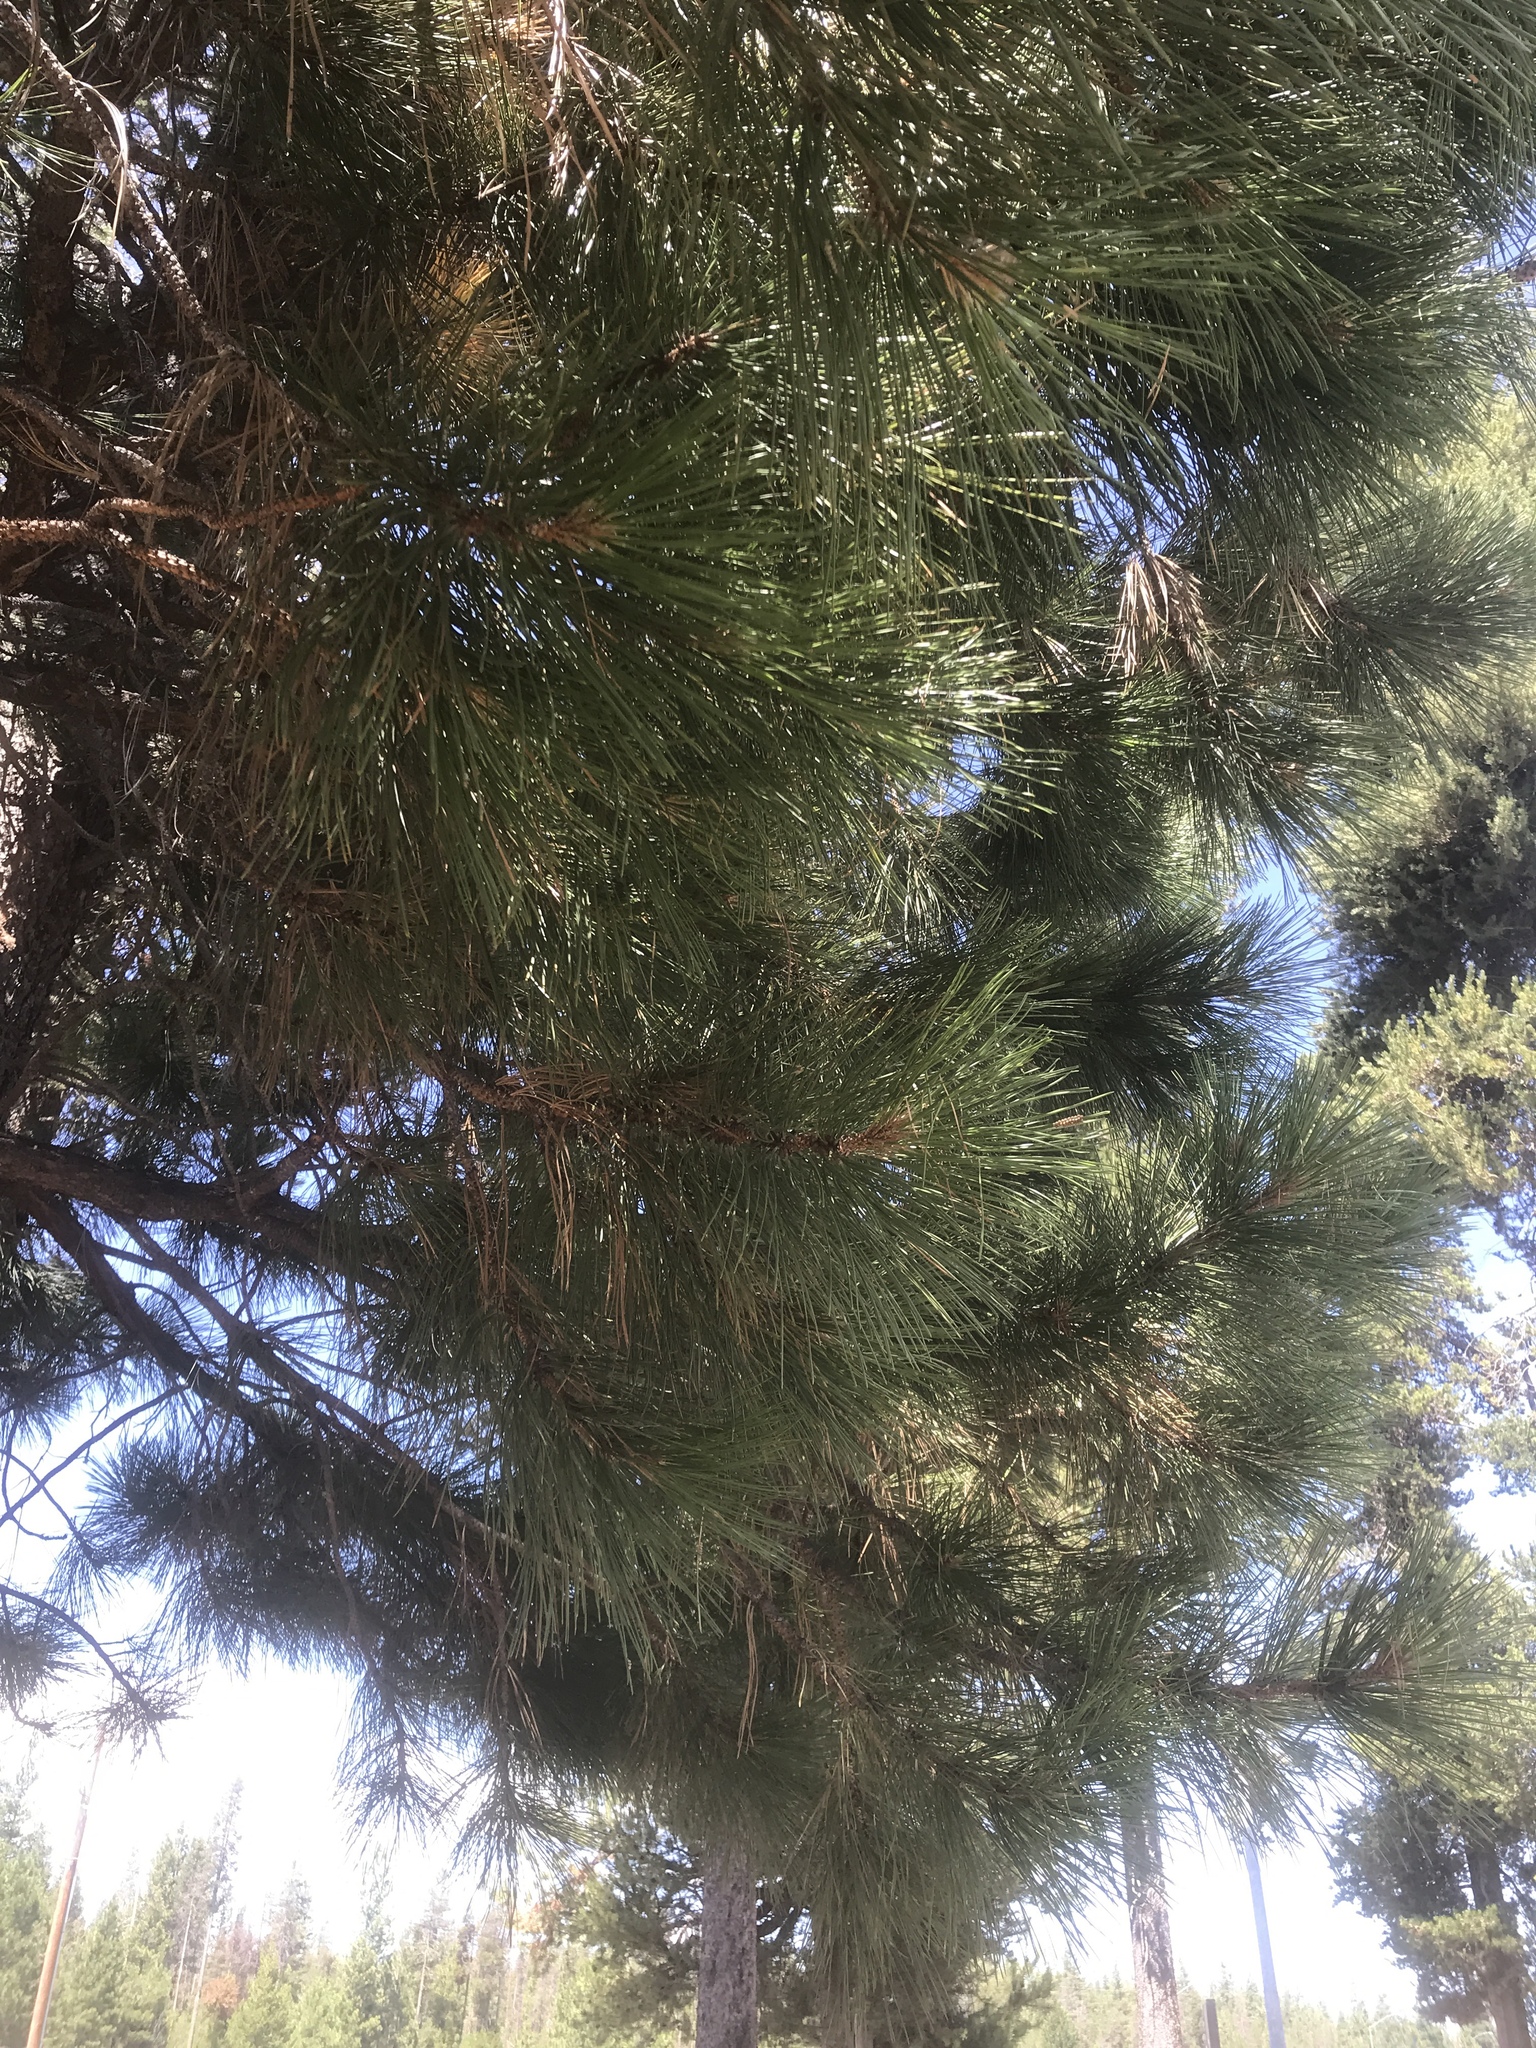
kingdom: Plantae
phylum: Tracheophyta
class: Pinopsida
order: Pinales
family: Pinaceae
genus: Pinus
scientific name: Pinus ponderosa
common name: Western yellow-pine
